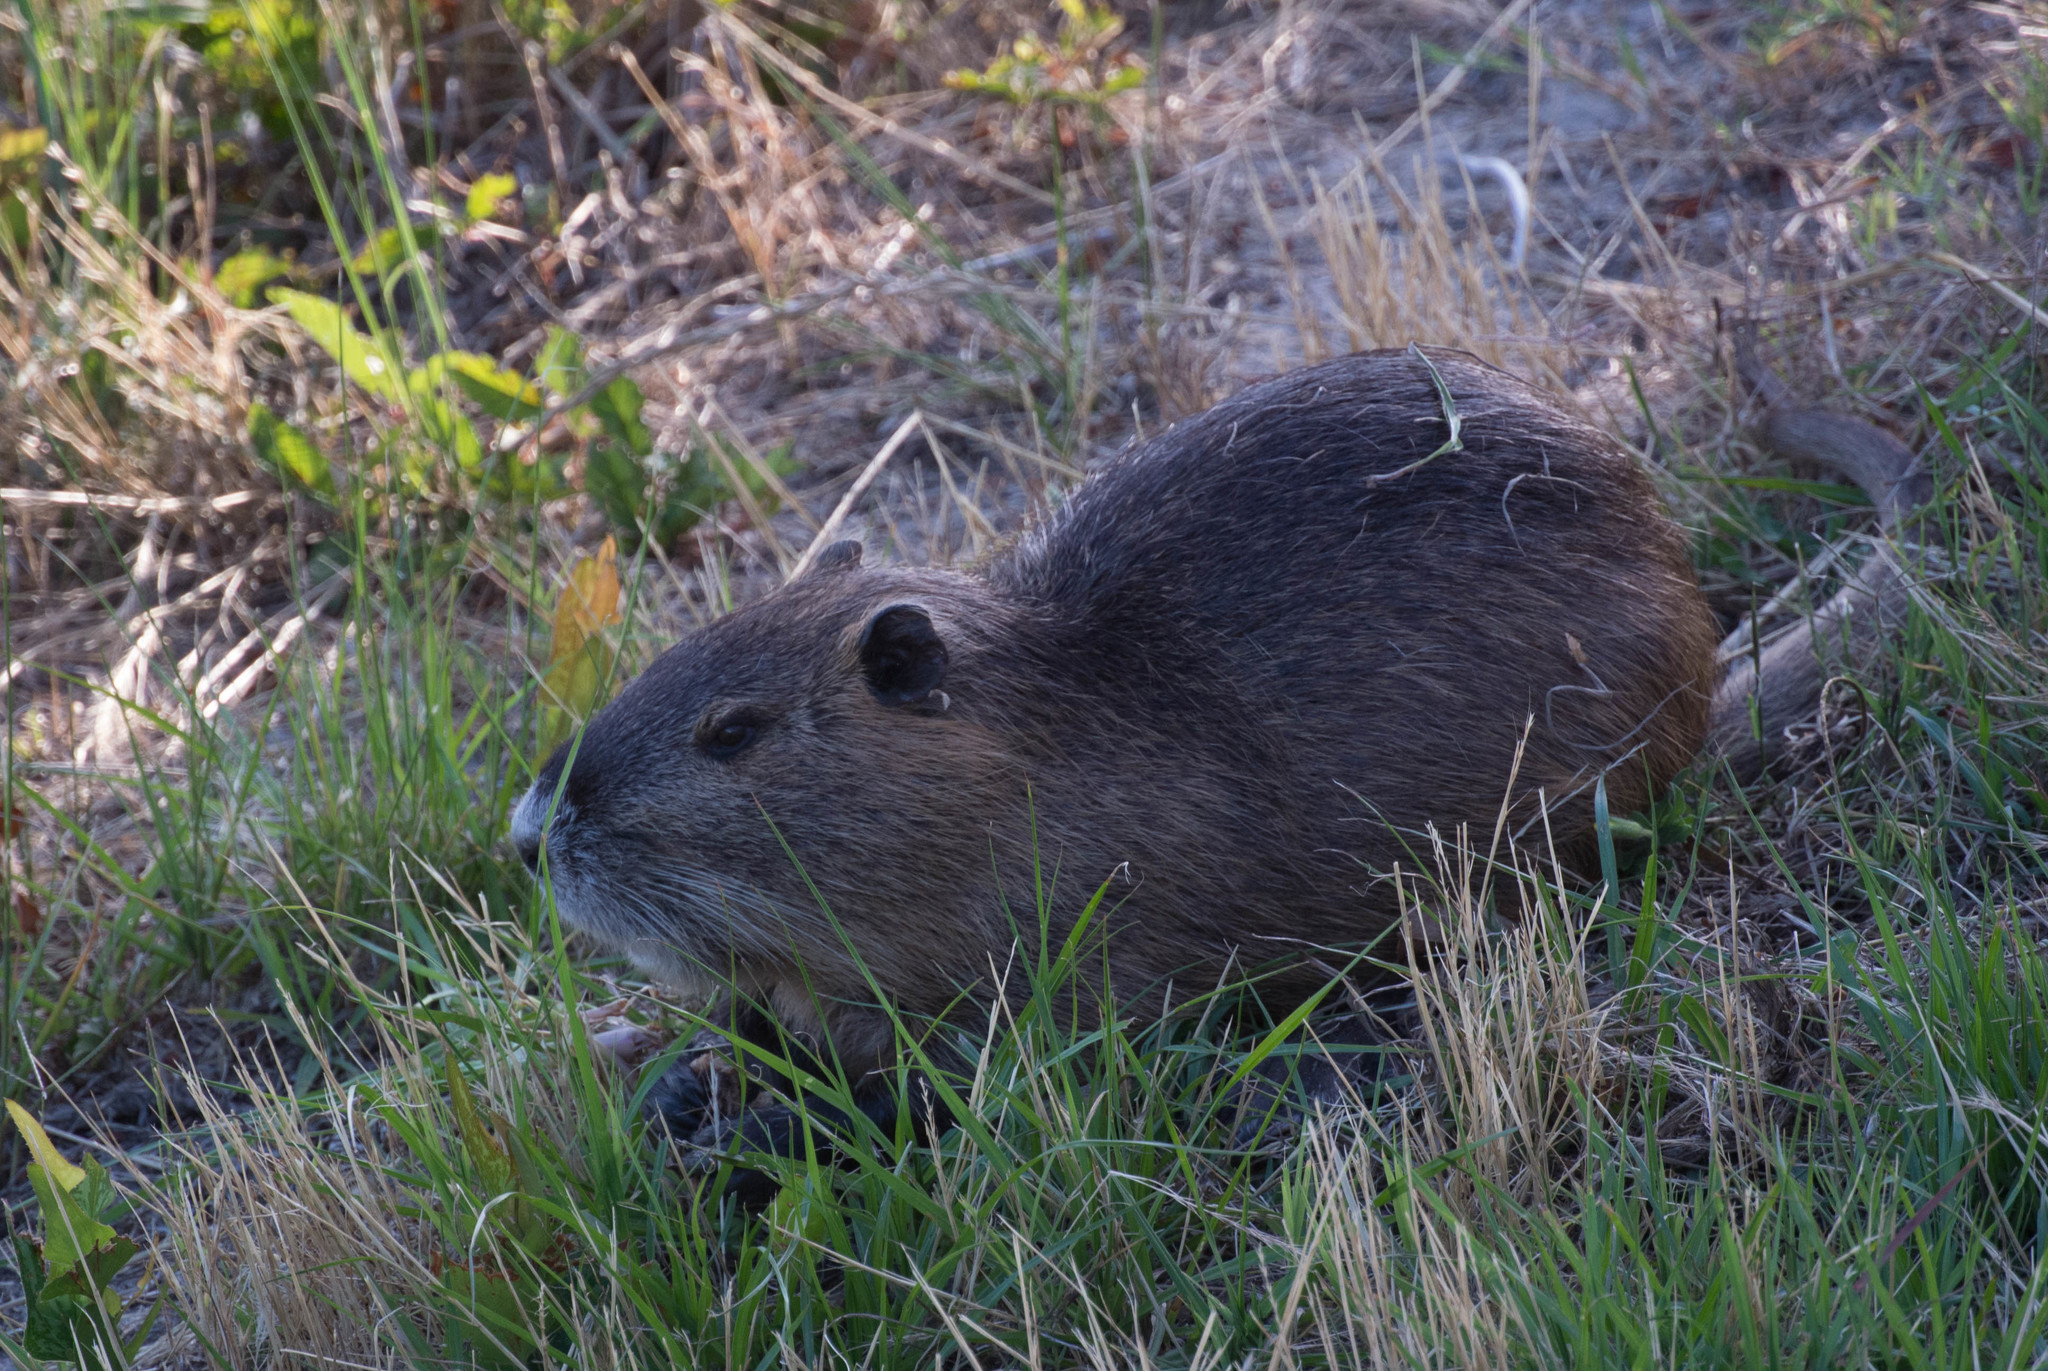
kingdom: Animalia
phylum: Chordata
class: Mammalia
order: Rodentia
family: Myocastoridae
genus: Myocastor
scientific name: Myocastor coypus
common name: Coypu
